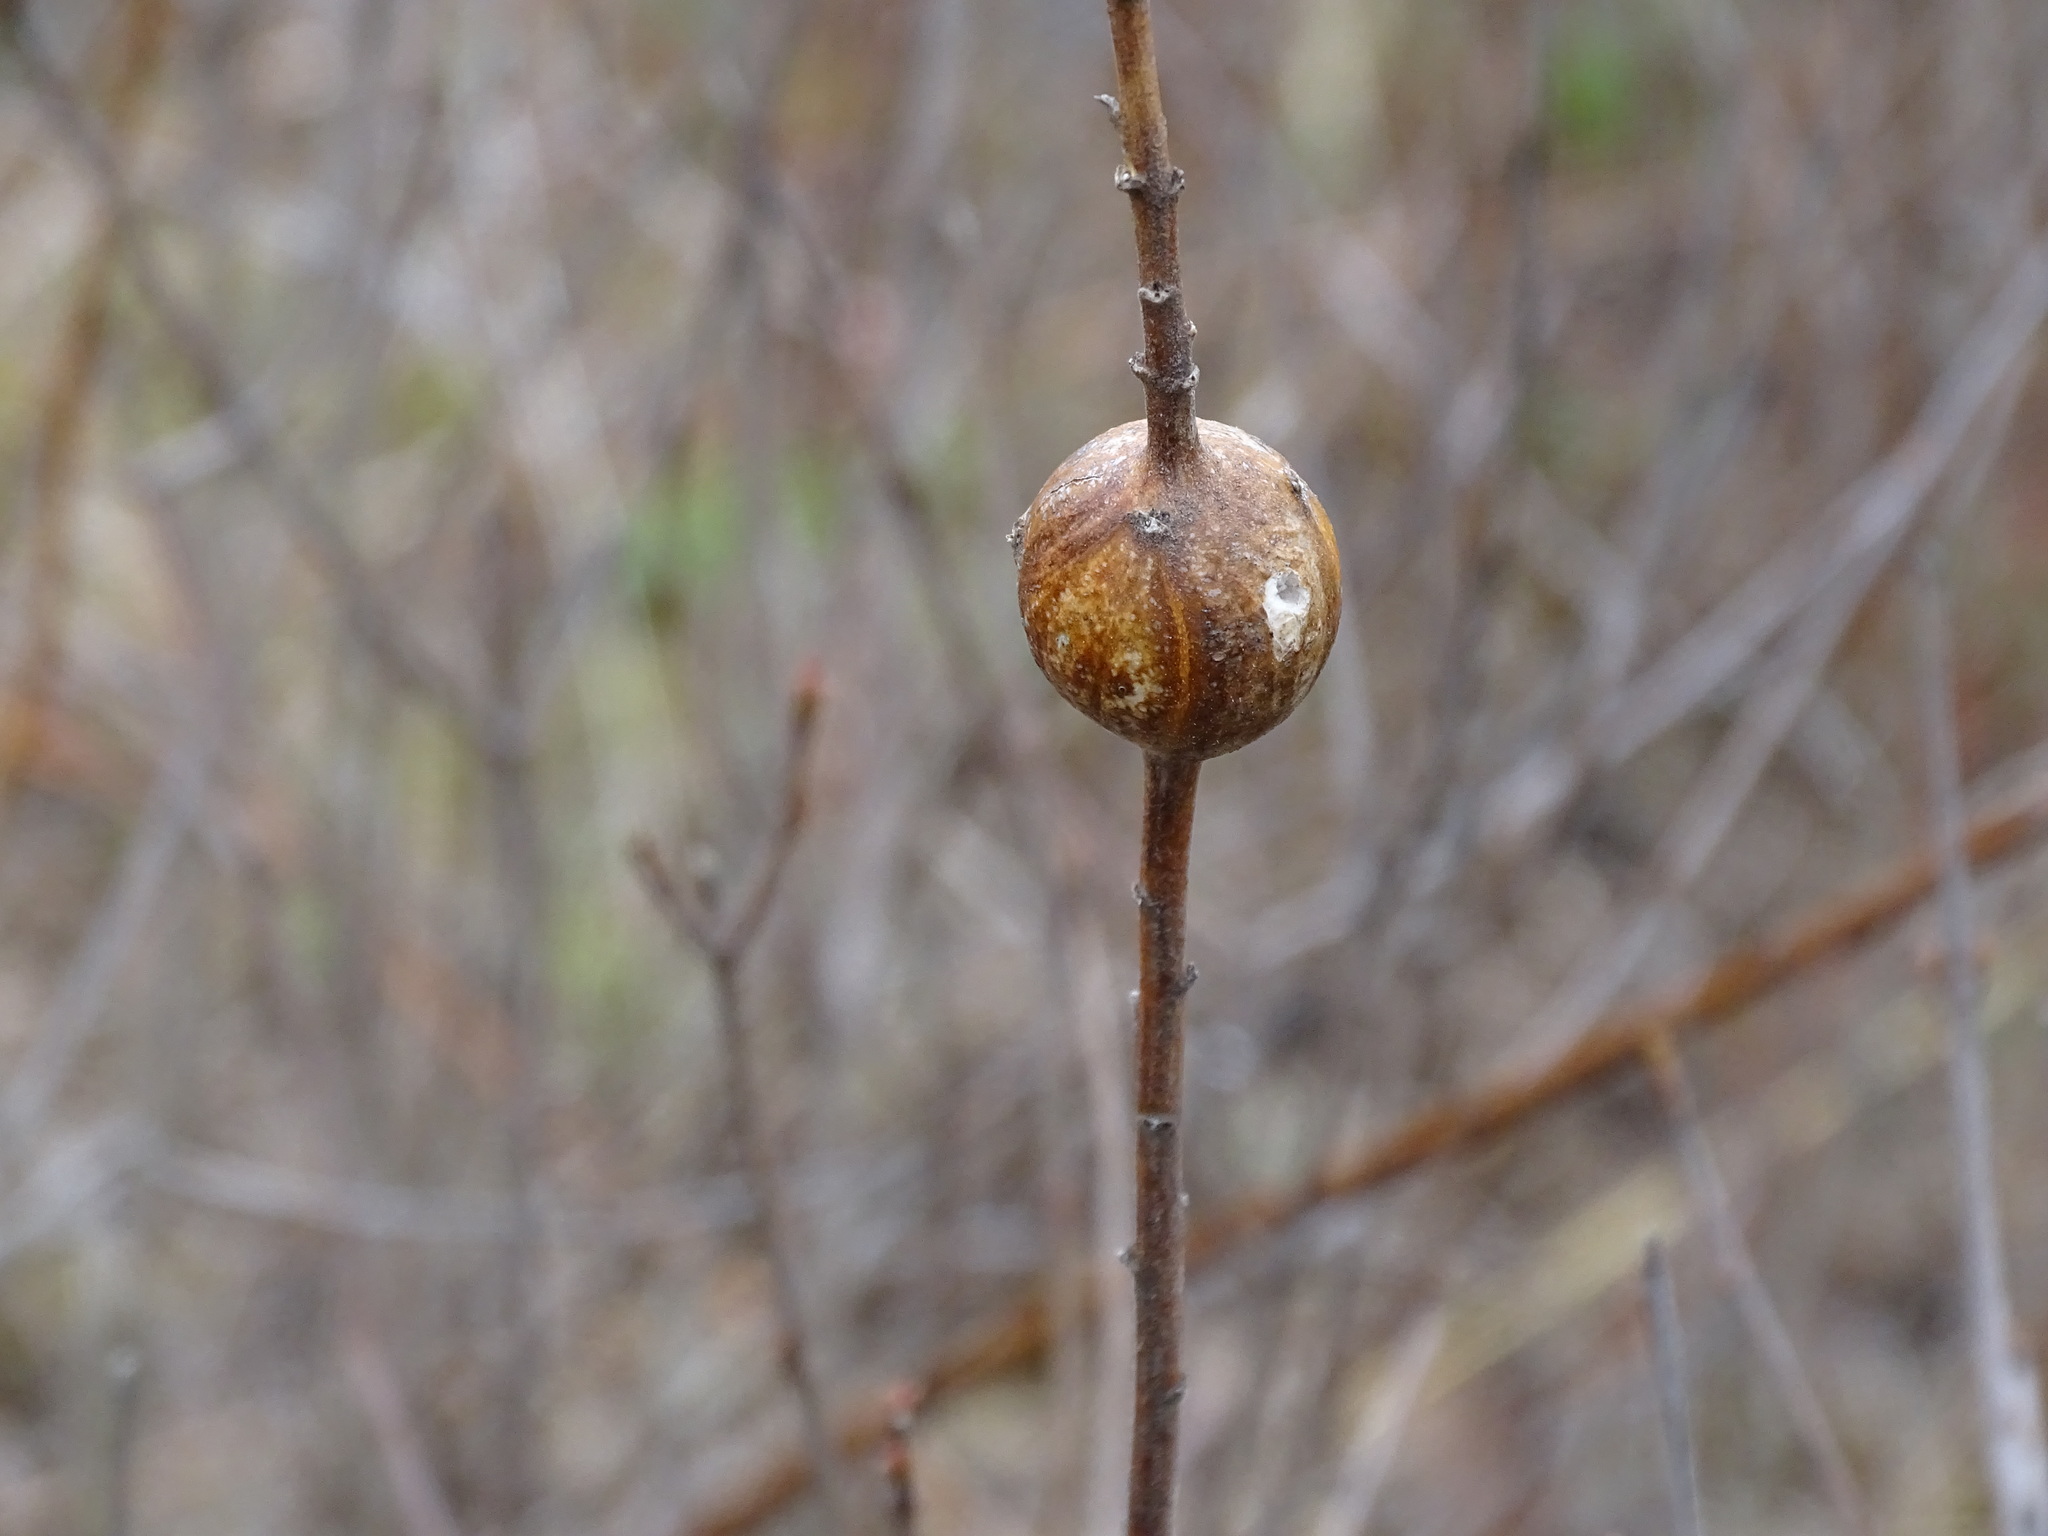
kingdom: Animalia
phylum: Arthropoda
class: Insecta
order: Diptera
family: Tephritidae
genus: Eurosta
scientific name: Eurosta solidaginis
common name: Goldenrod gall fly
